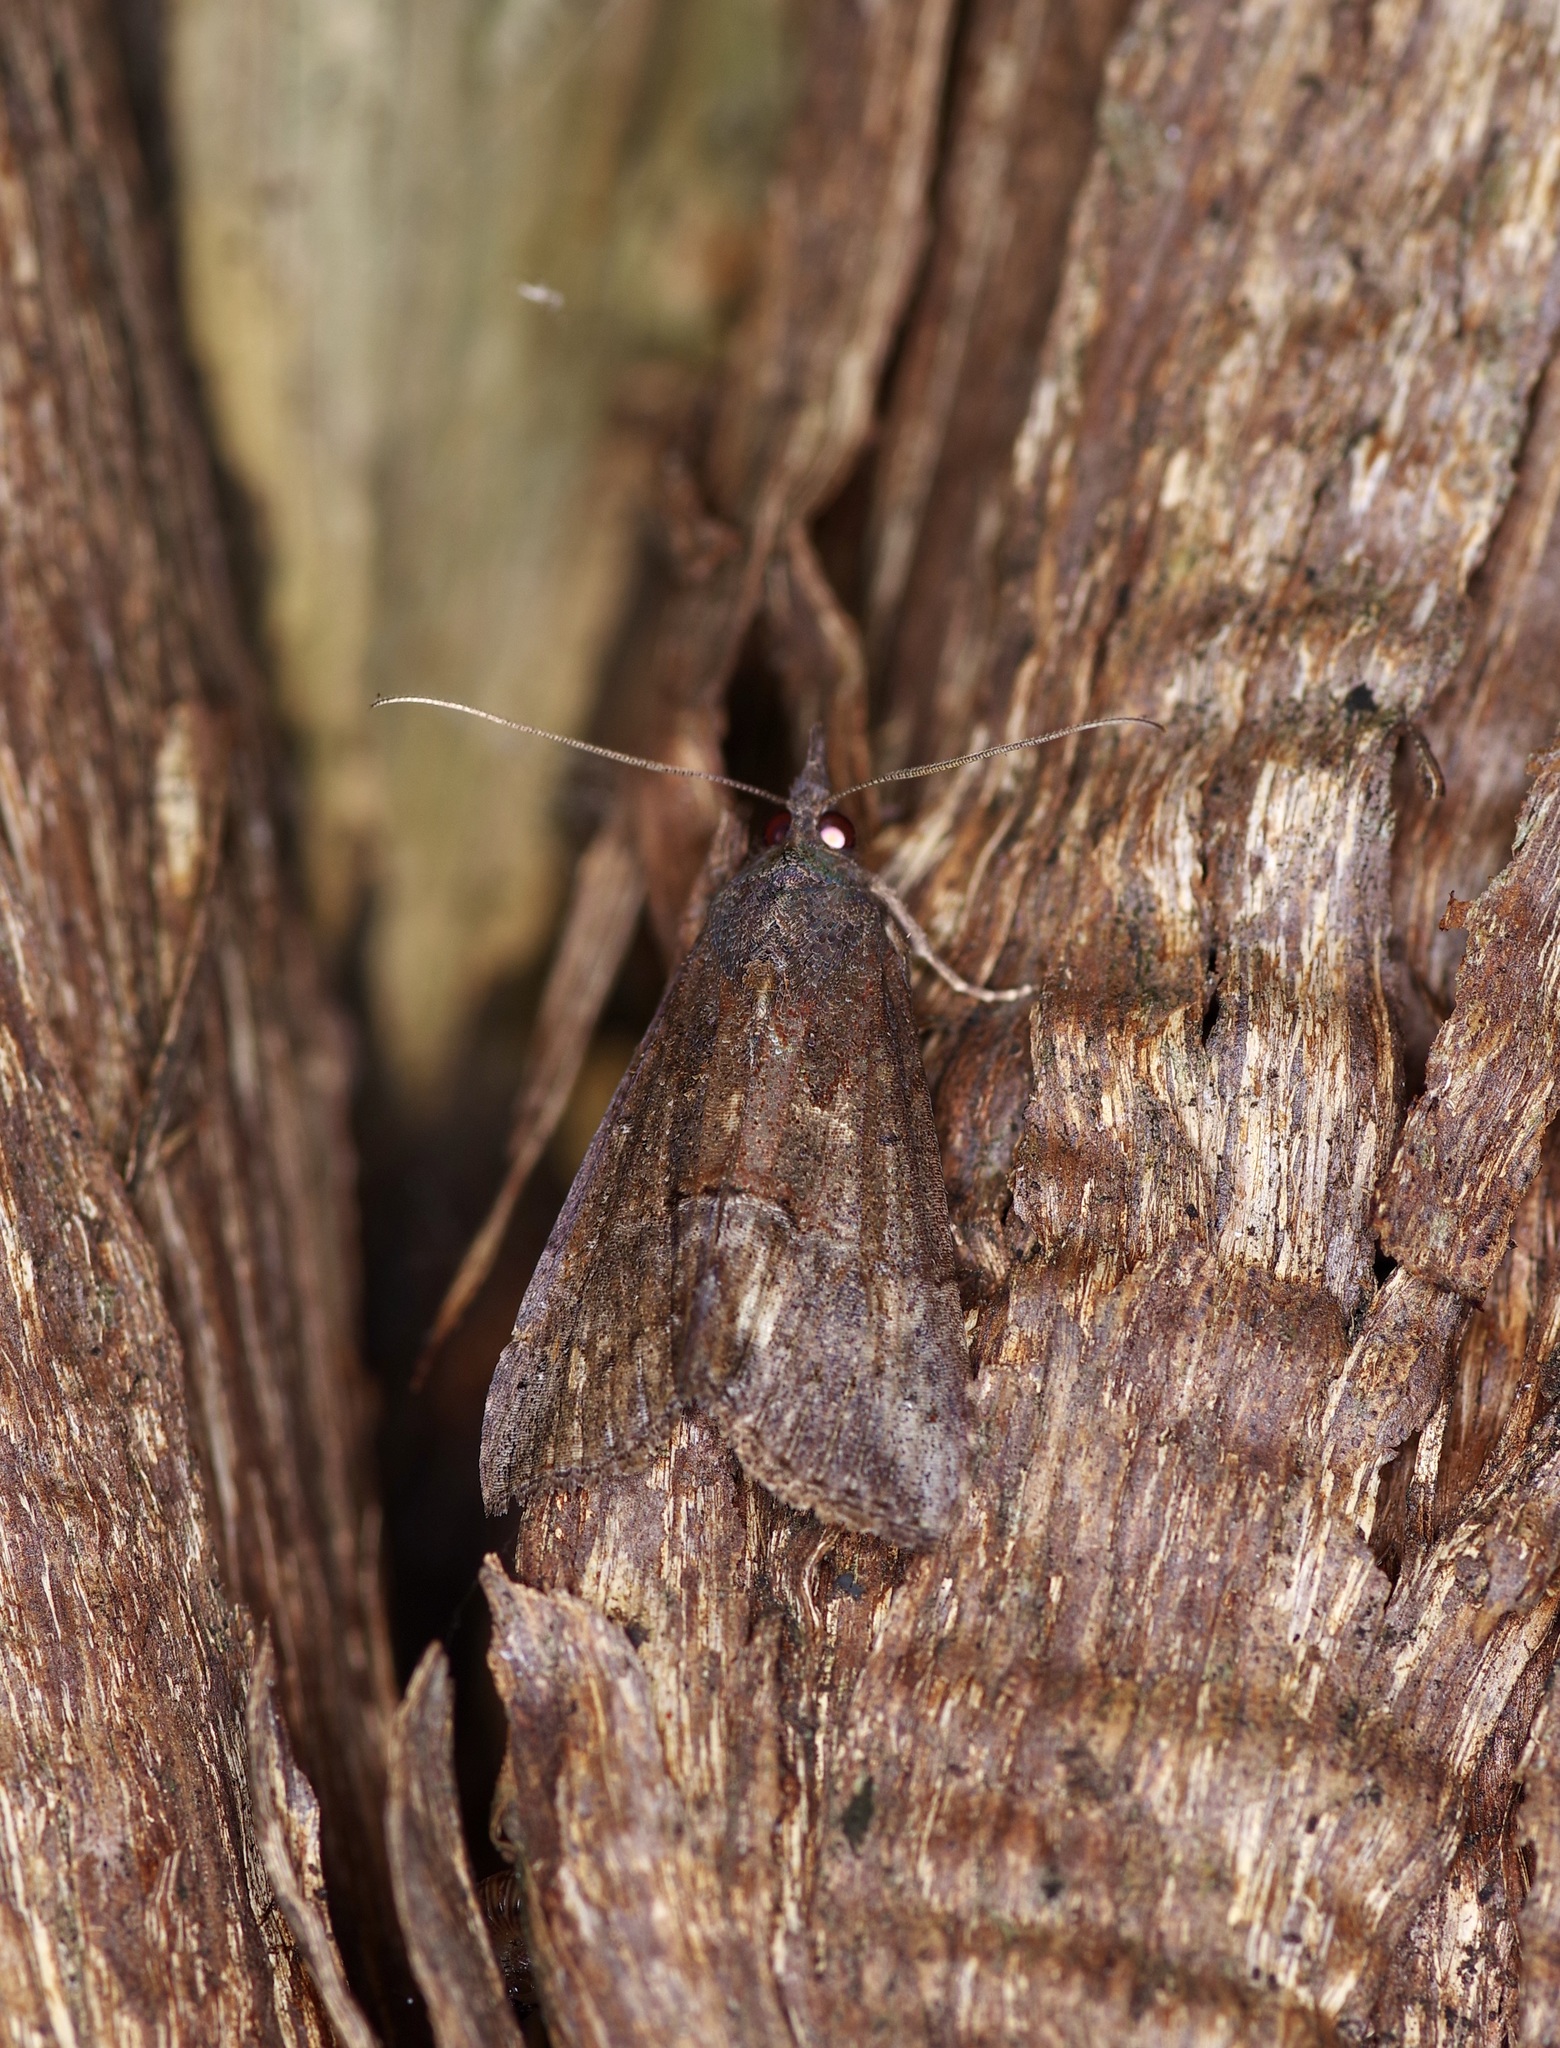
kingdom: Animalia
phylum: Arthropoda
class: Insecta
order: Lepidoptera
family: Erebidae
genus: Hypena
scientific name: Hypena scabra
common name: Green cloverworm
